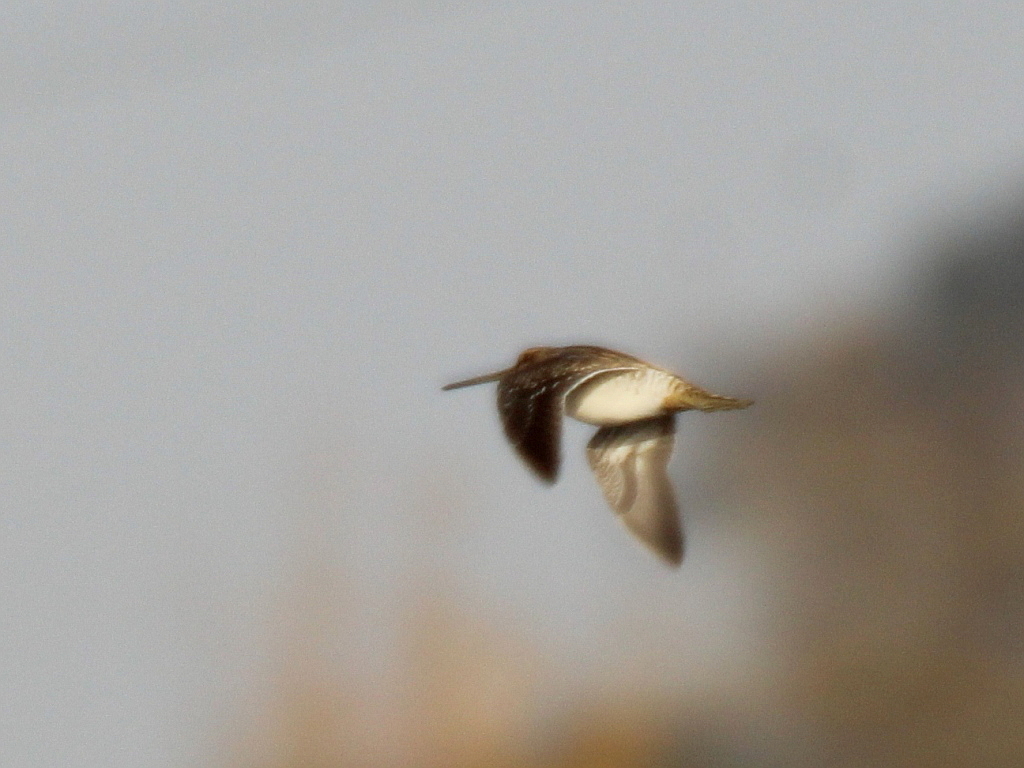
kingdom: Animalia
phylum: Chordata
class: Aves
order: Charadriiformes
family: Scolopacidae
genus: Gallinago
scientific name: Gallinago gallinago
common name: Common snipe
